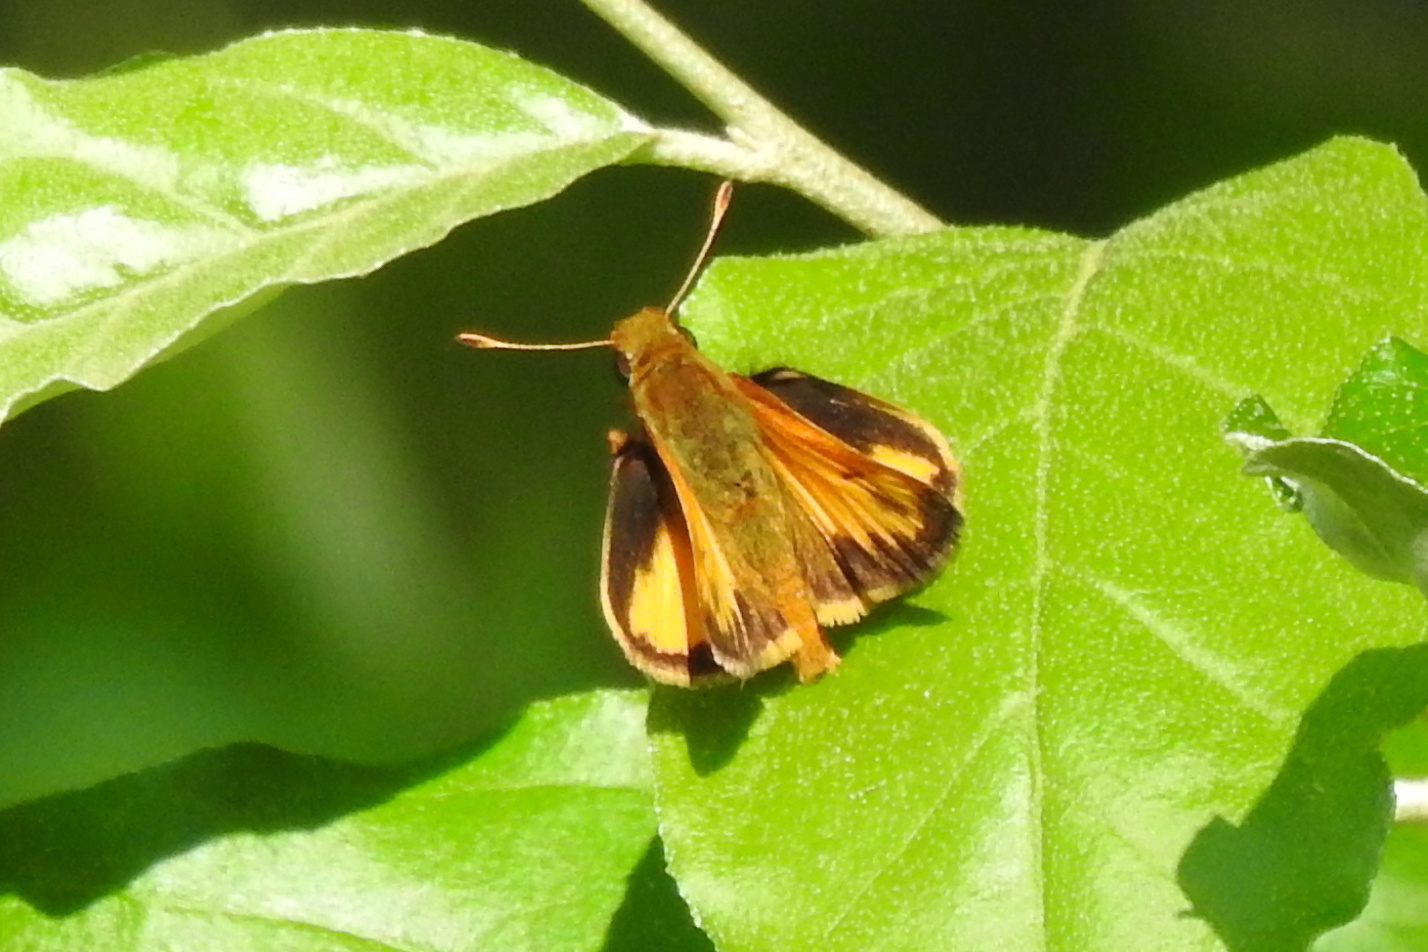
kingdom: Animalia
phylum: Arthropoda
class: Insecta
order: Lepidoptera
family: Hesperiidae
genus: Lon
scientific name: Lon zabulon
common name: Zabulon skipper
